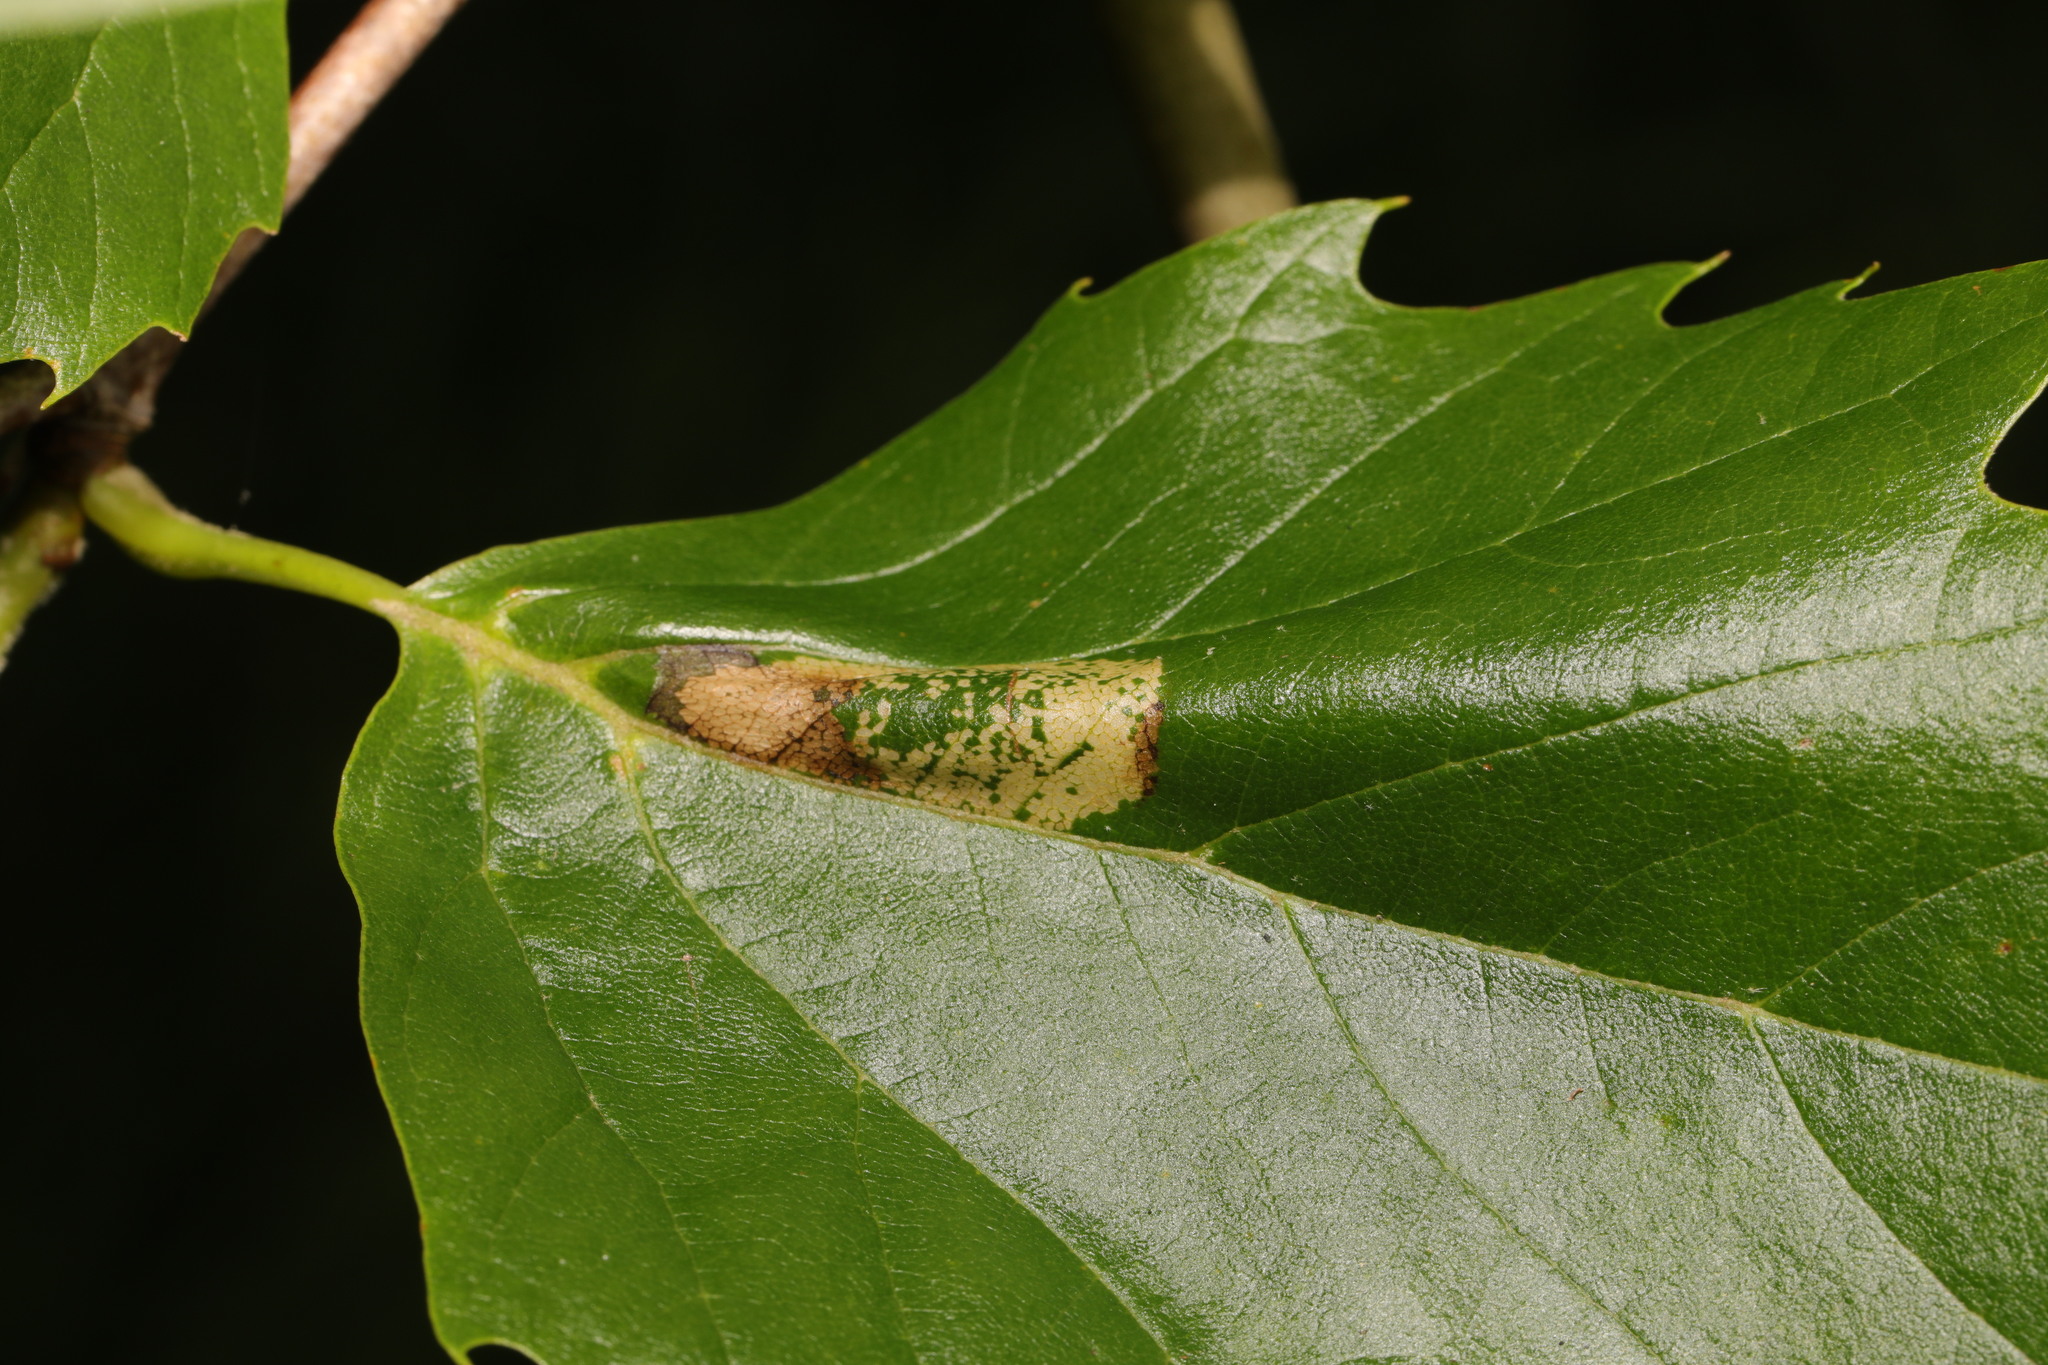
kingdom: Animalia
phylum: Arthropoda
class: Insecta
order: Lepidoptera
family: Gracillariidae
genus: Phyllonorycter
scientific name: Phyllonorycter platani
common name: London midget
